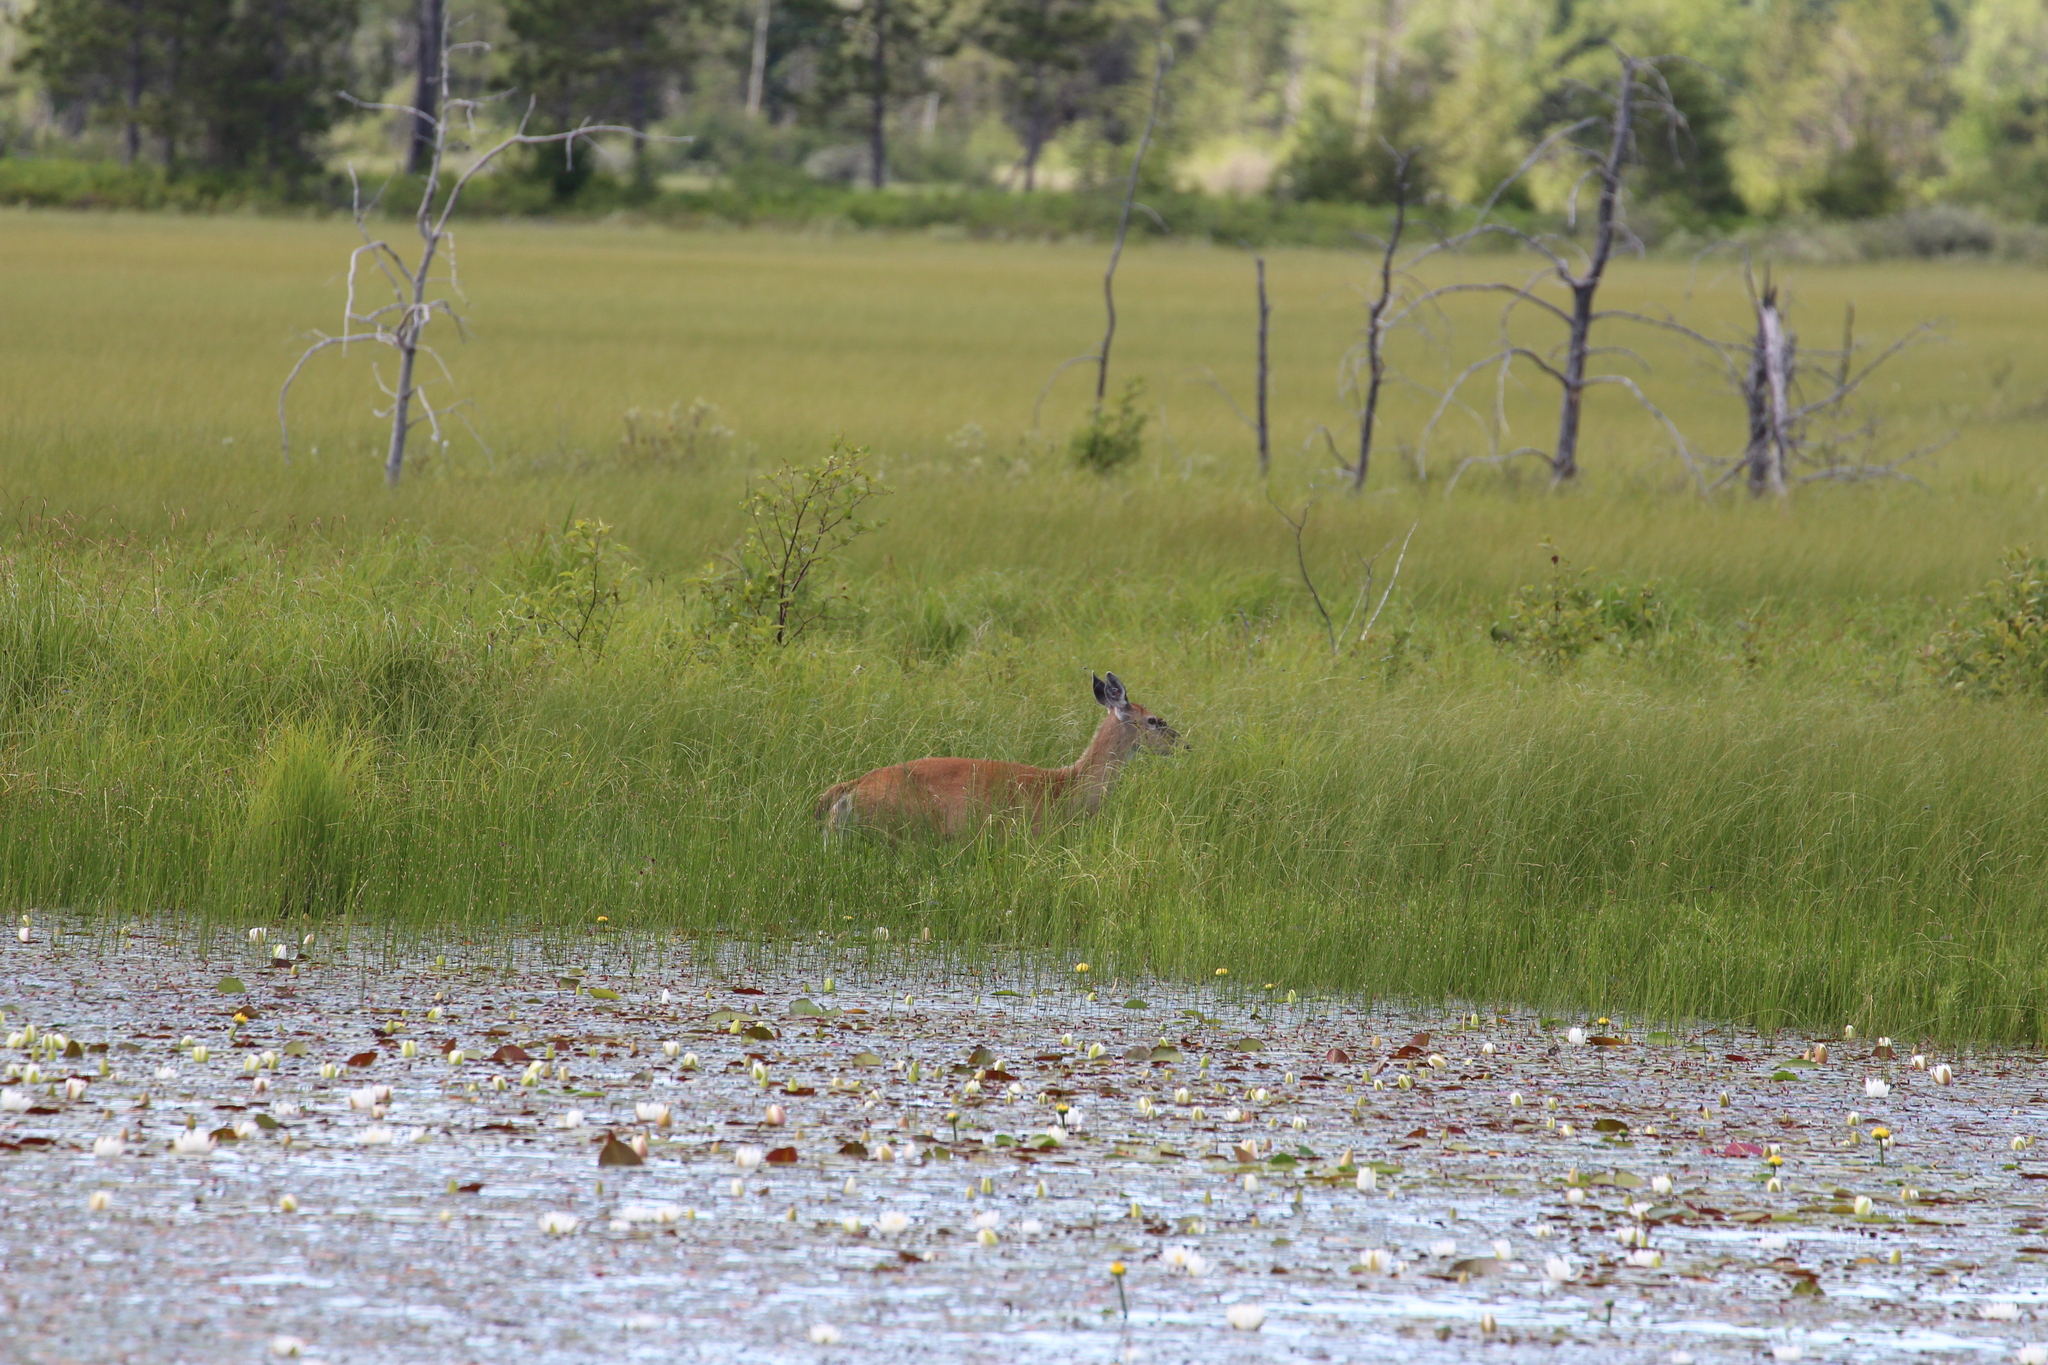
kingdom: Animalia
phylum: Chordata
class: Mammalia
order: Artiodactyla
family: Cervidae
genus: Odocoileus
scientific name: Odocoileus virginianus
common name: White-tailed deer
